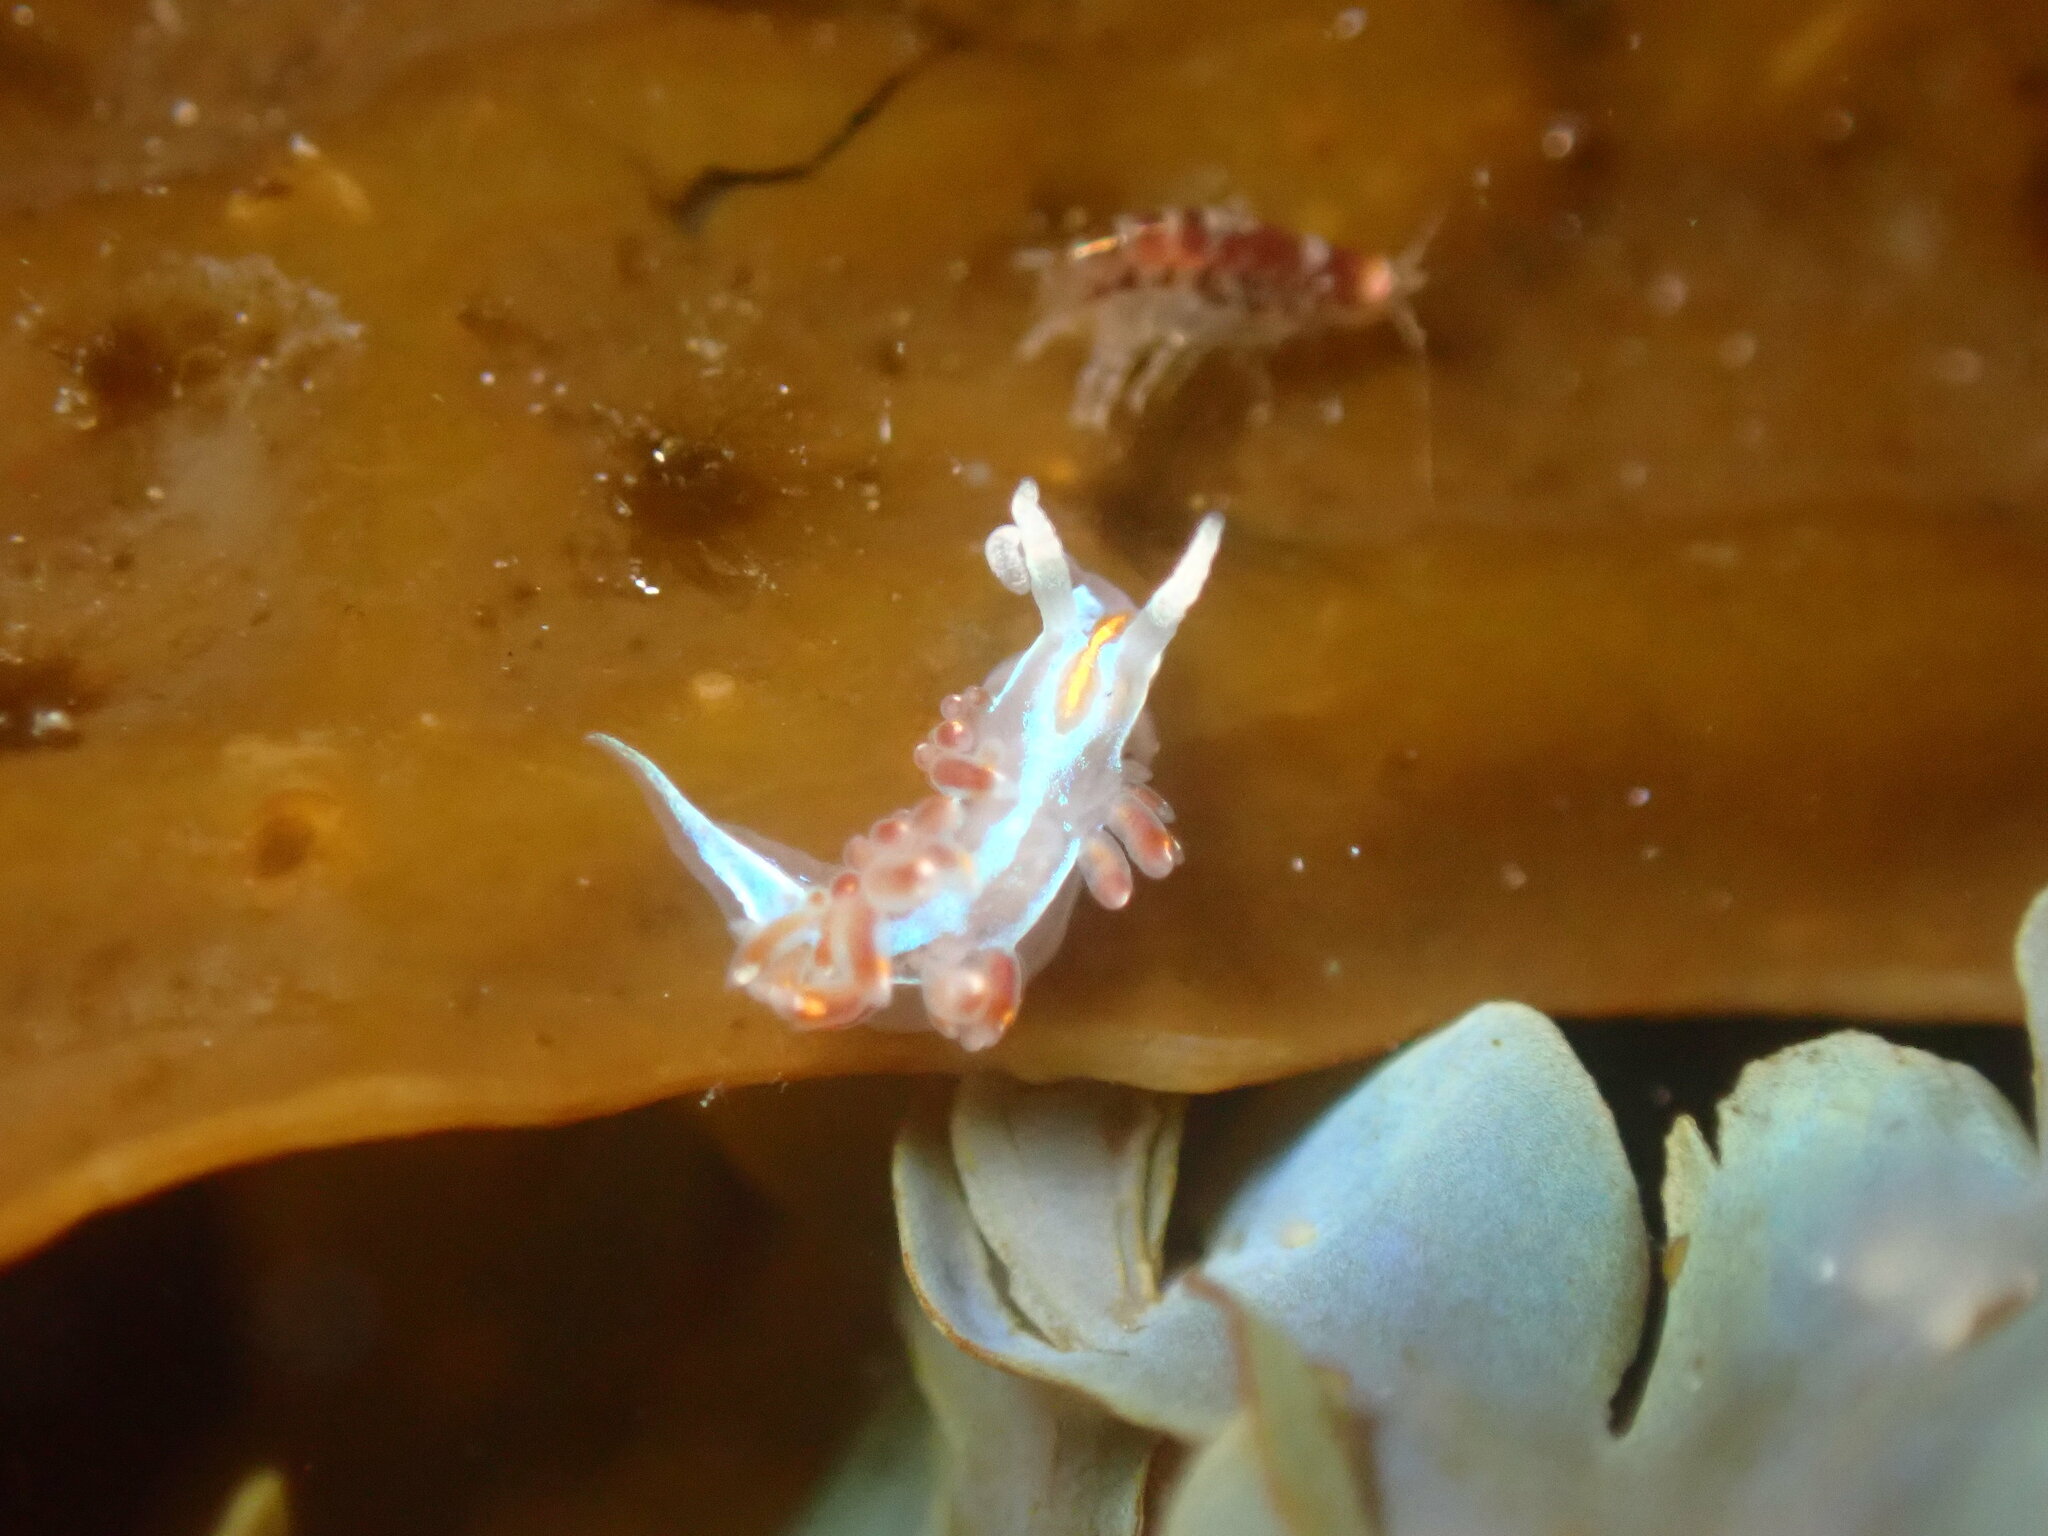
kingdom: Animalia
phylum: Mollusca
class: Gastropoda
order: Nudibranchia
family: Myrrhinidae
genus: Hermissenda
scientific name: Hermissenda opalescens
